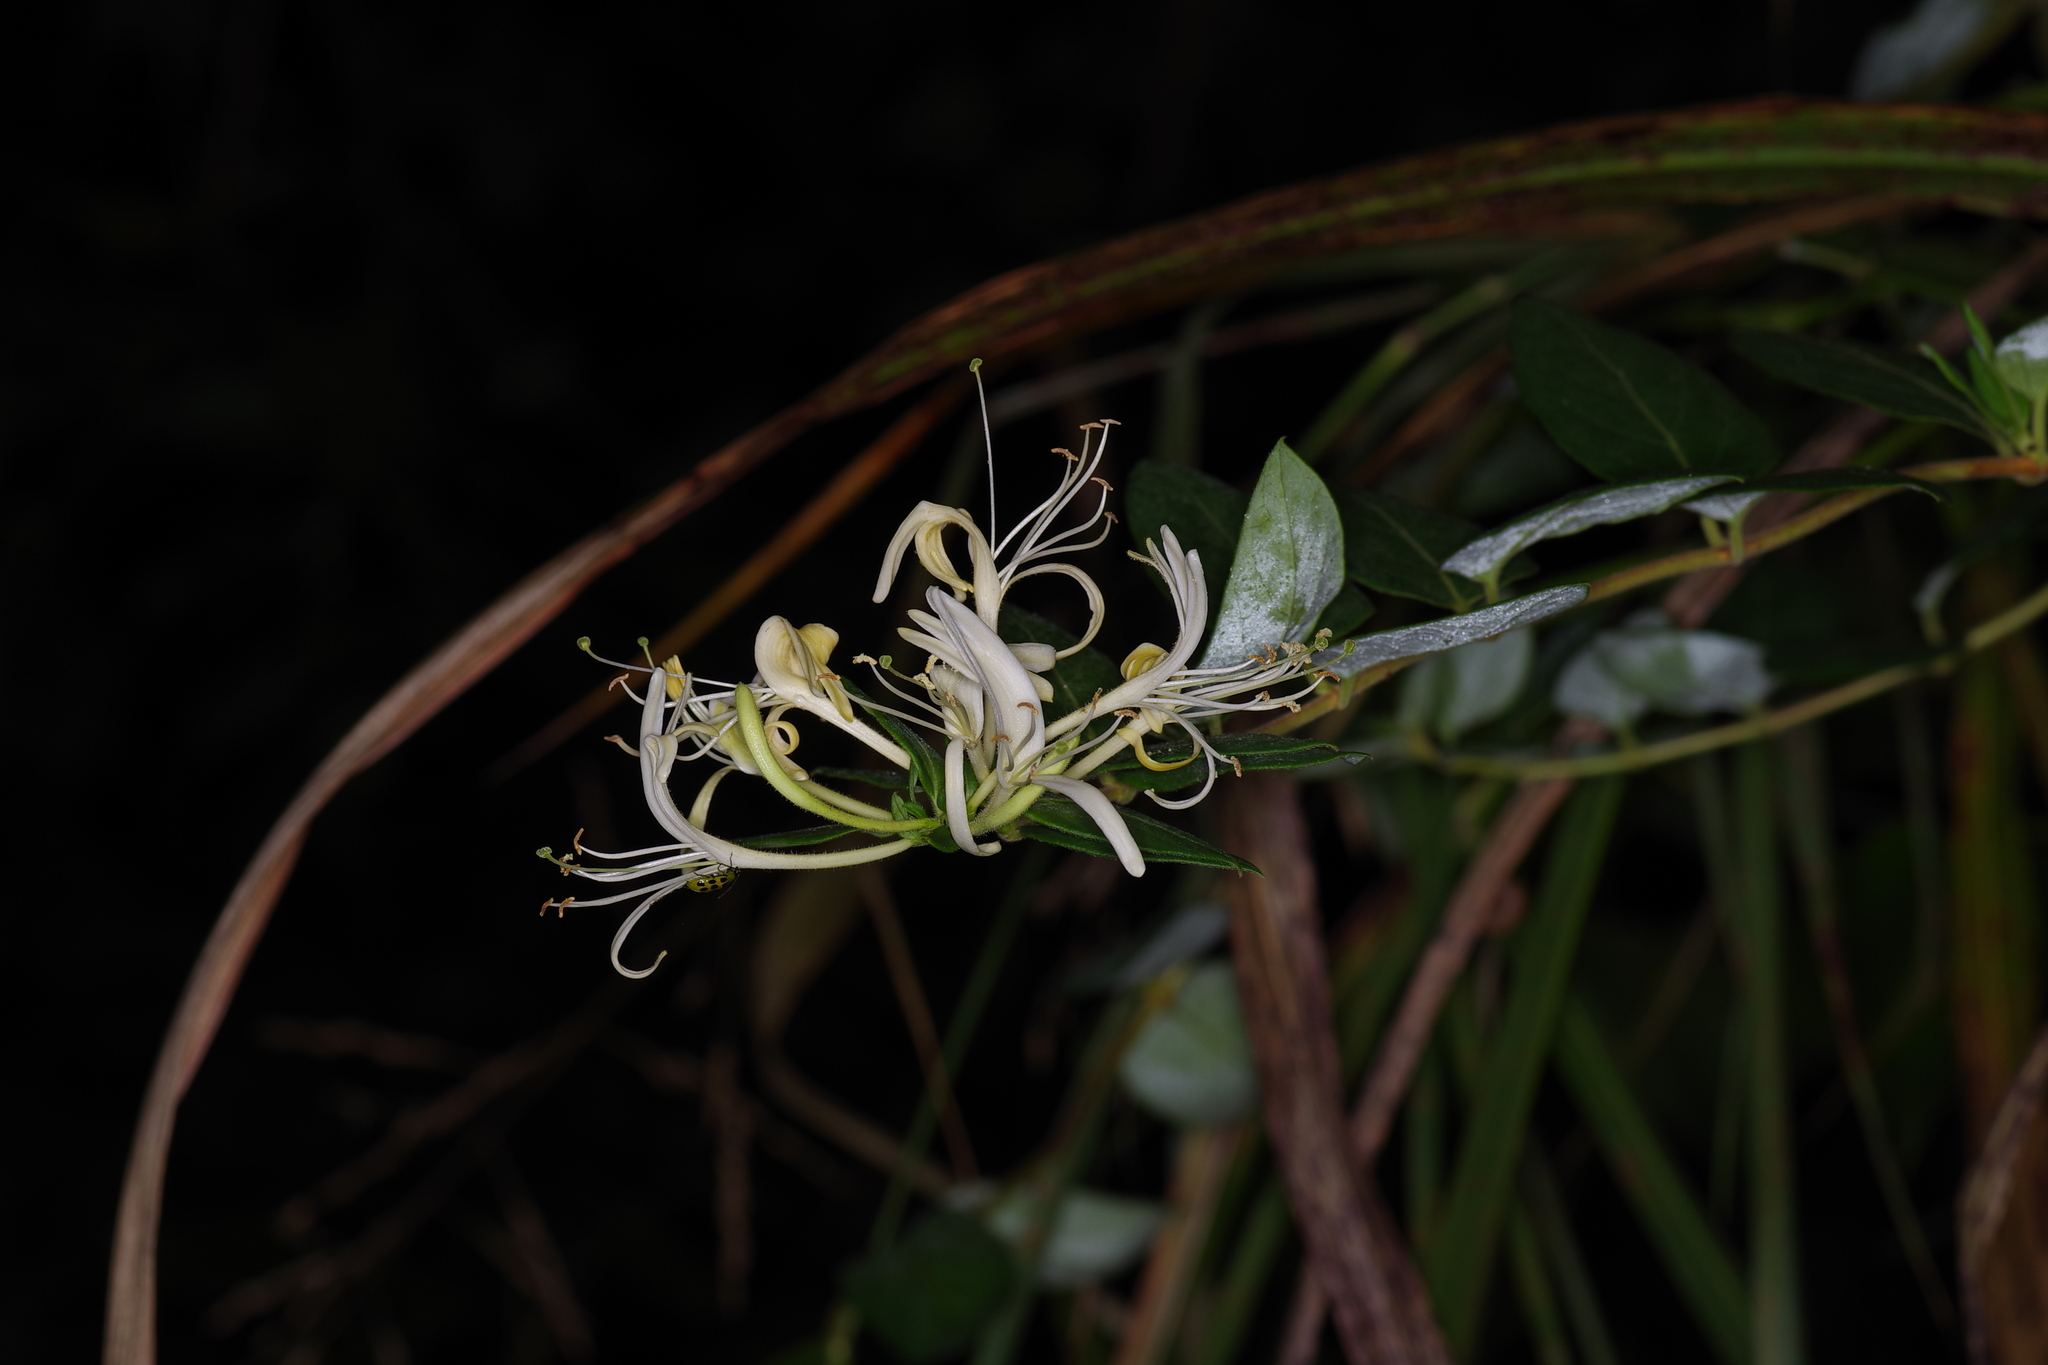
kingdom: Plantae
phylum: Tracheophyta
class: Magnoliopsida
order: Dipsacales
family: Caprifoliaceae
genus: Lonicera
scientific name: Lonicera japonica
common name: Japanese honeysuckle
